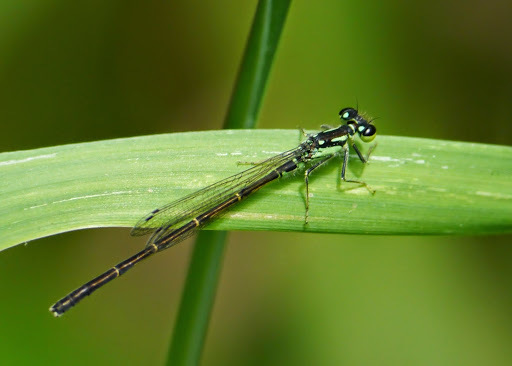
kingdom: Animalia
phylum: Arthropoda
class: Insecta
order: Odonata
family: Coenagrionidae
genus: Ischnura
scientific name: Ischnura posita
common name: Fragile forktail
